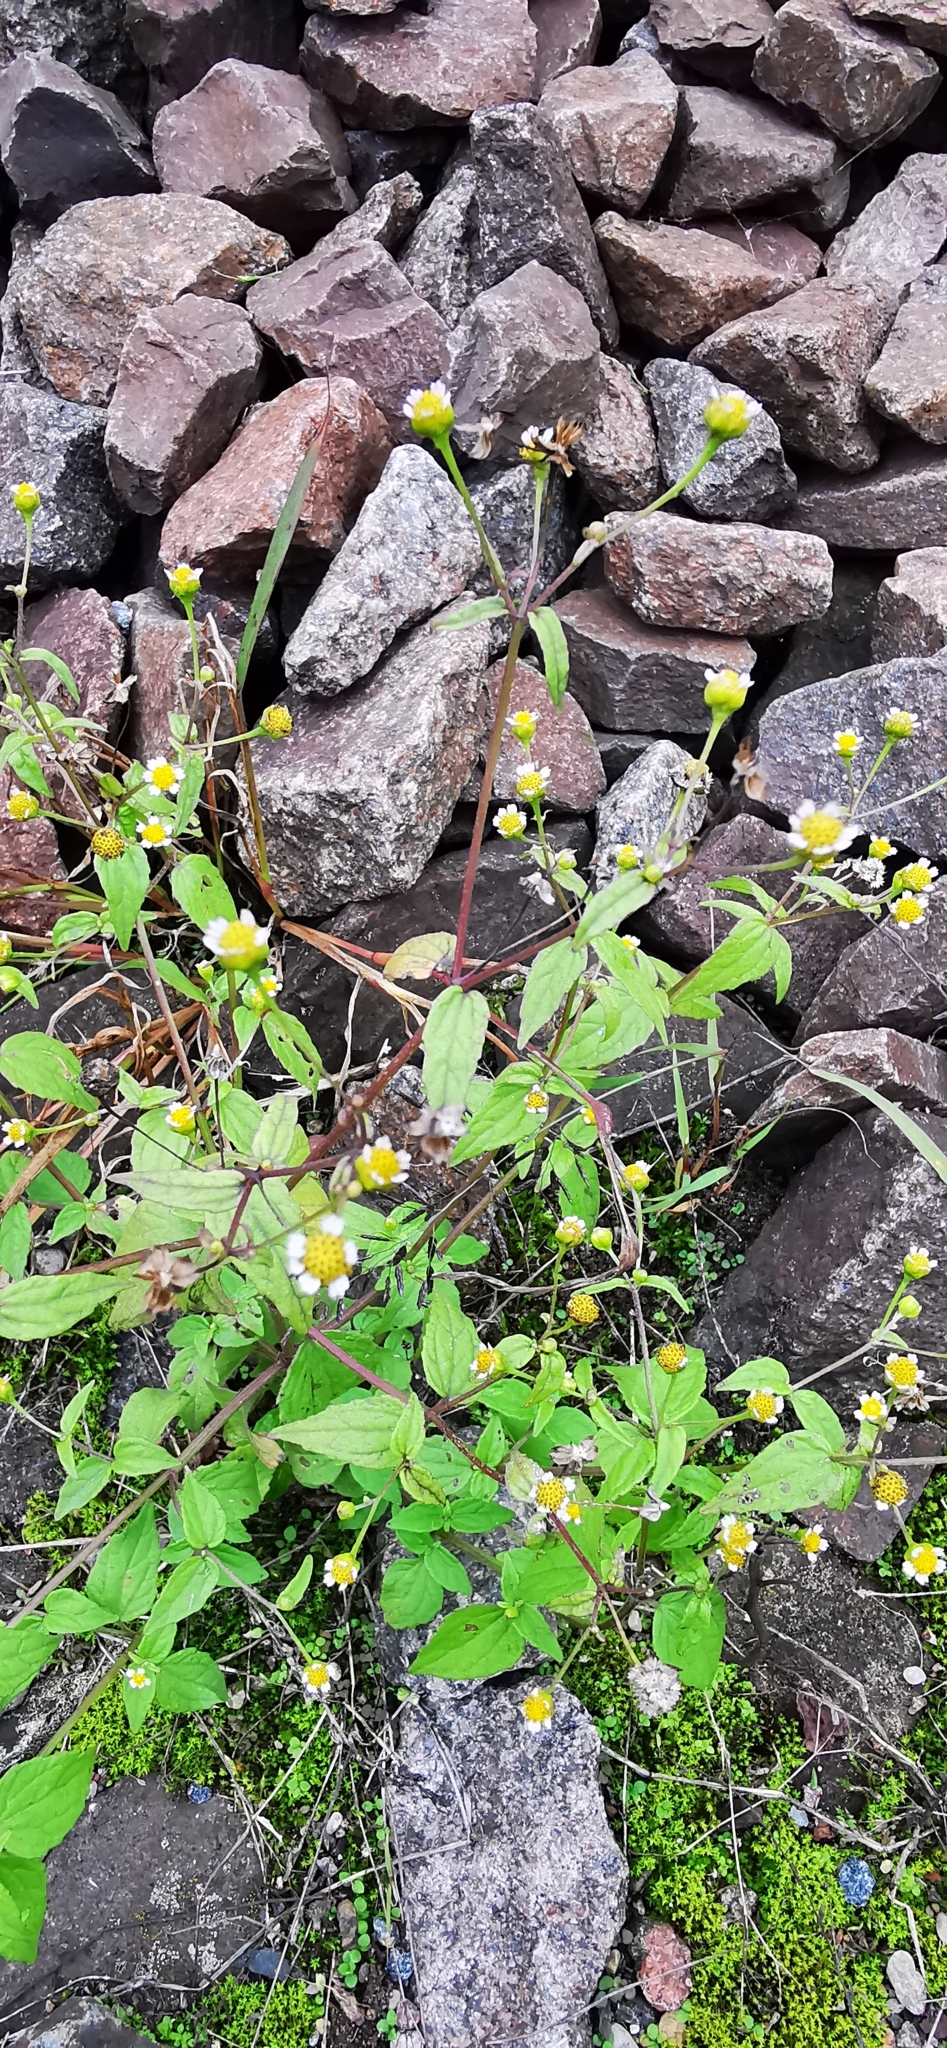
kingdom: Plantae
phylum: Tracheophyta
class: Magnoliopsida
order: Asterales
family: Asteraceae
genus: Galinsoga
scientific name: Galinsoga parviflora
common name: Gallant soldier
